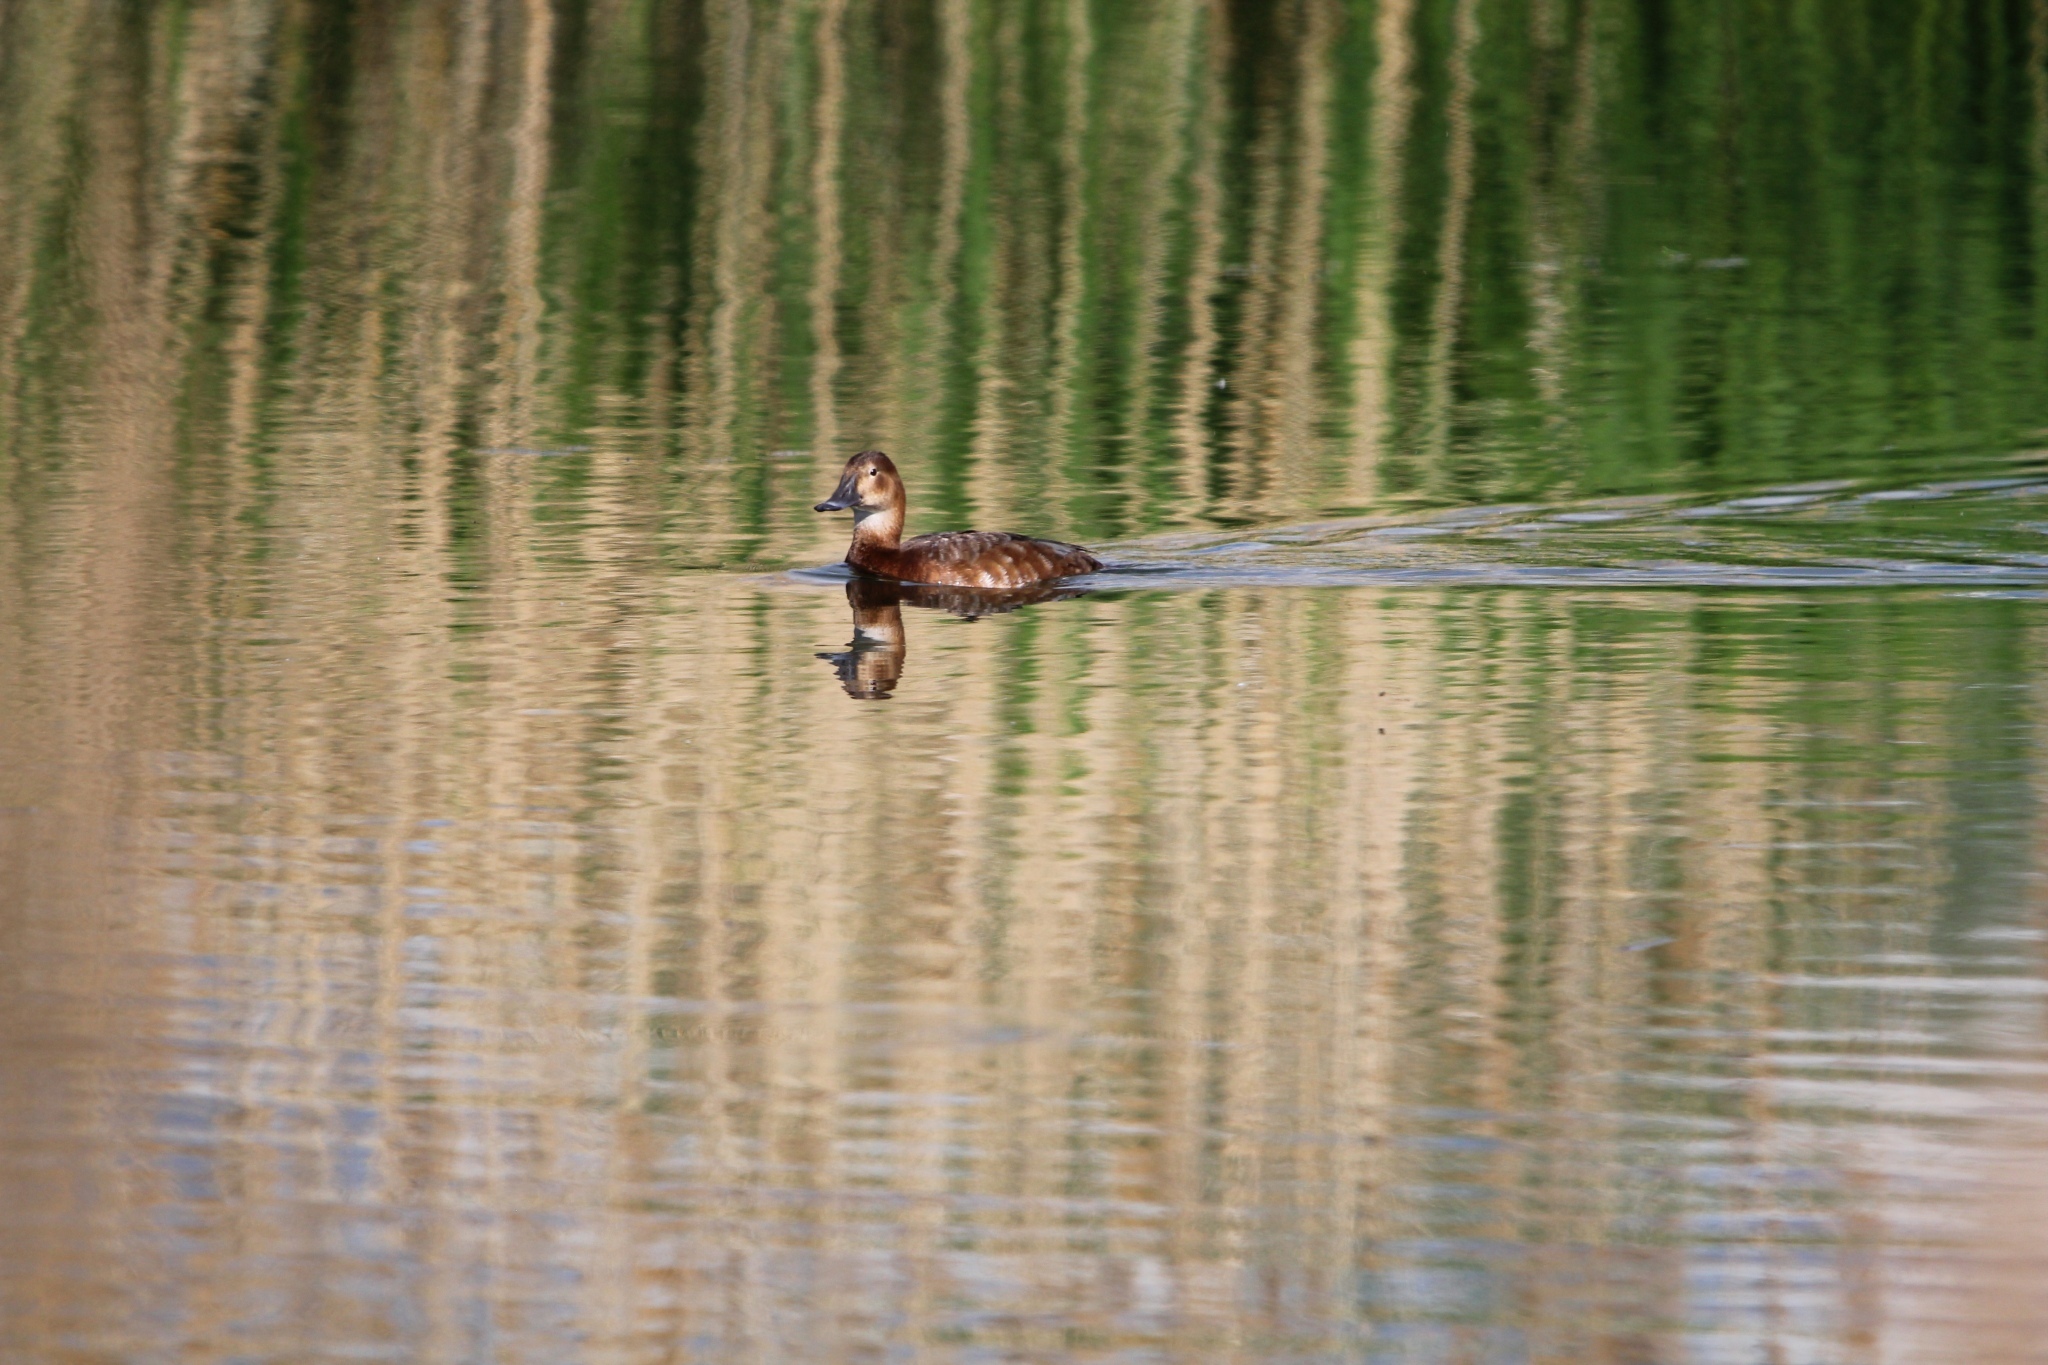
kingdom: Animalia
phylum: Chordata
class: Aves
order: Anseriformes
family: Anatidae
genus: Aythya
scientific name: Aythya ferina
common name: Common pochard
